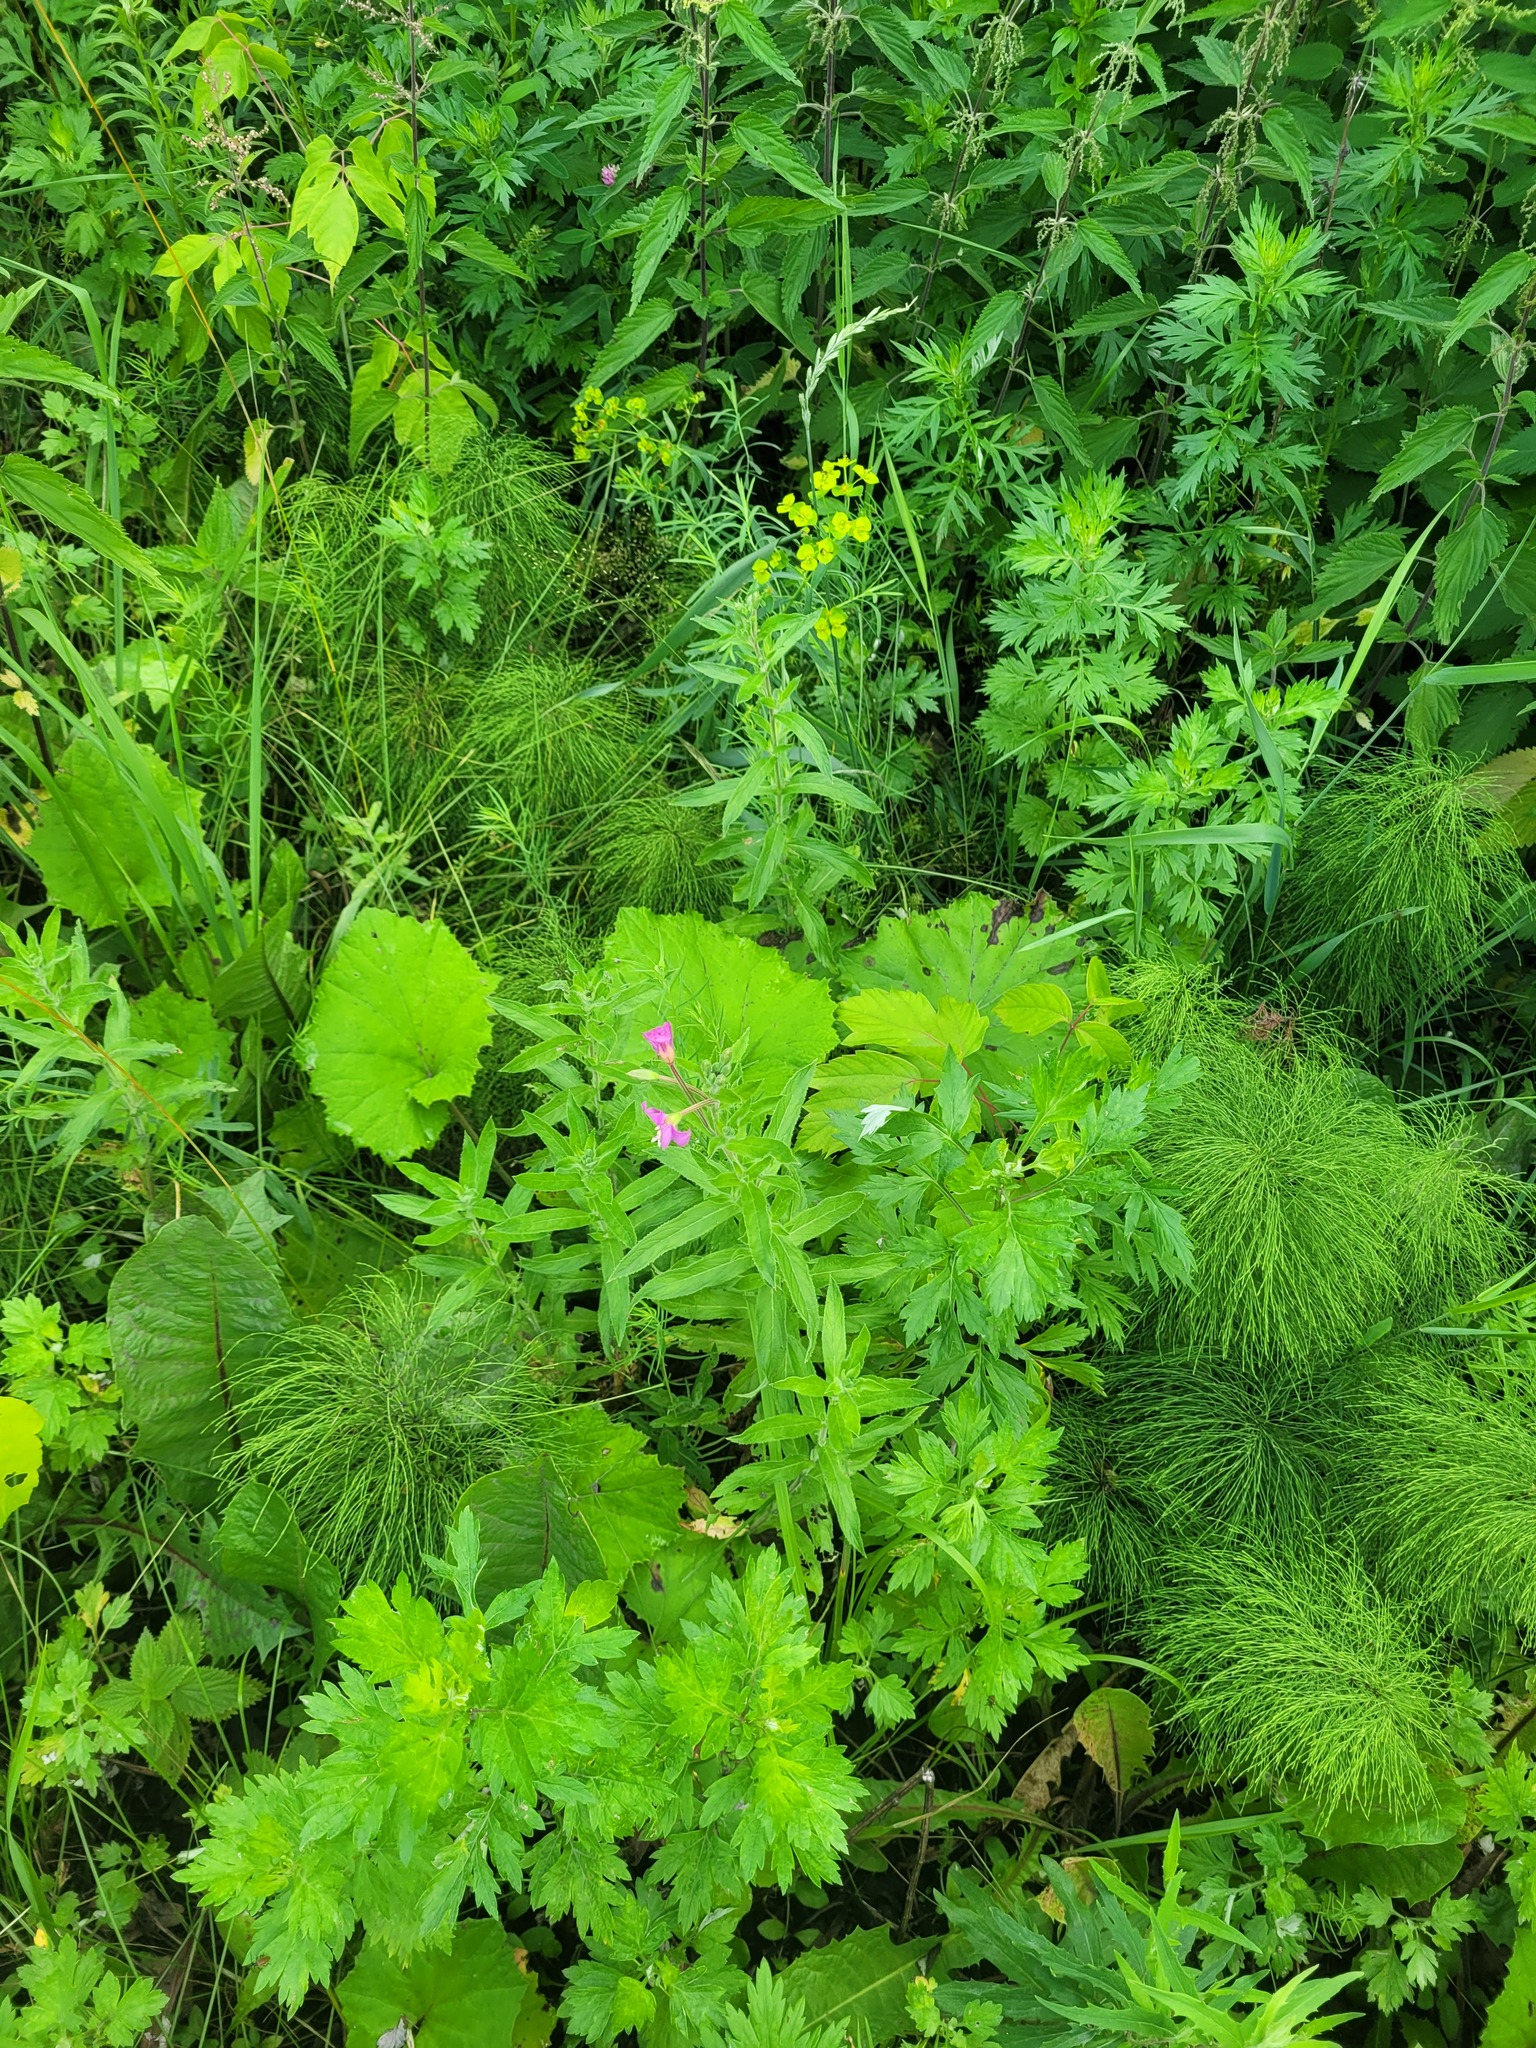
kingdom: Plantae
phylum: Tracheophyta
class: Magnoliopsida
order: Myrtales
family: Onagraceae
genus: Epilobium
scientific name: Epilobium hirsutum
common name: Great willowherb
